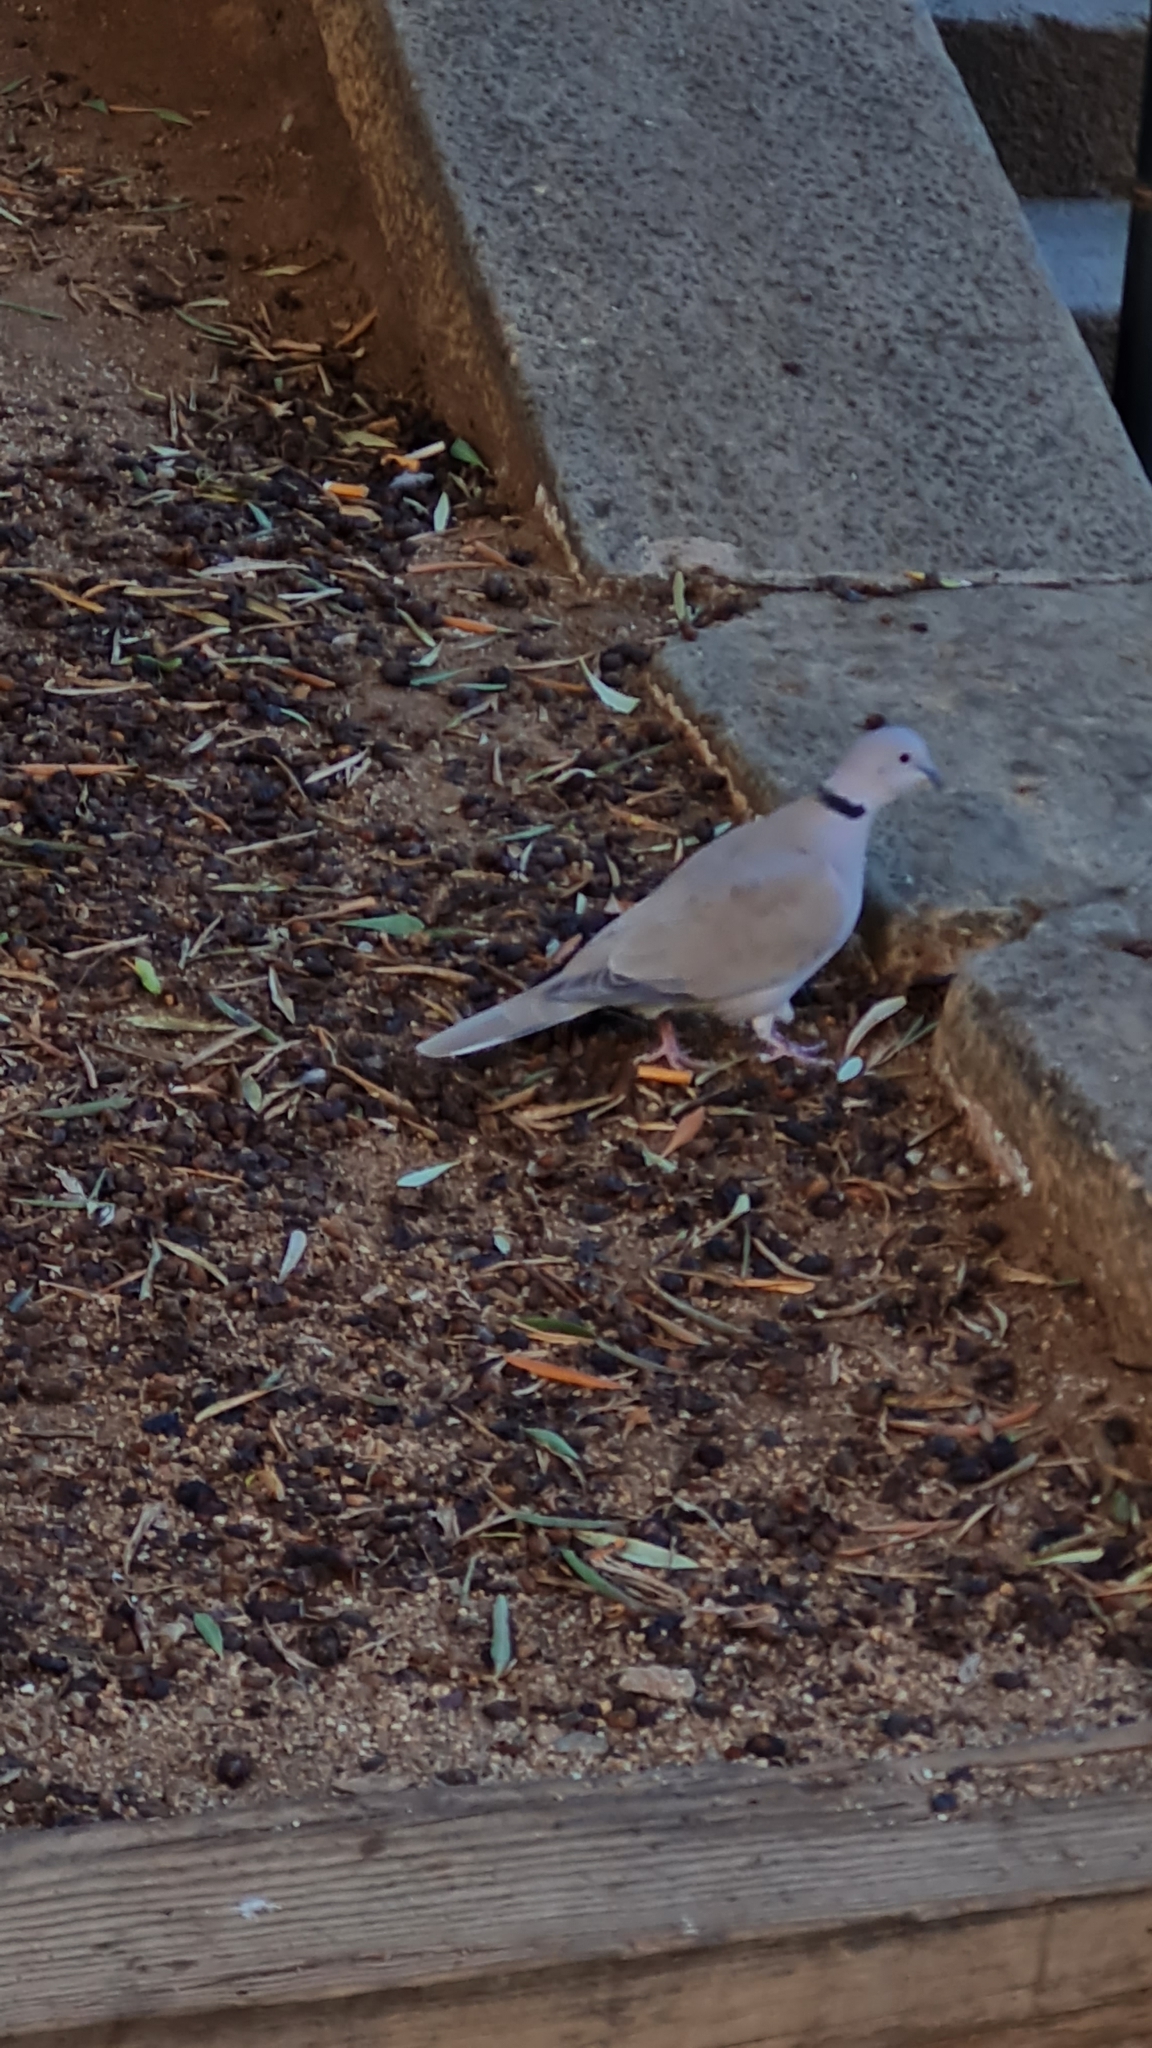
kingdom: Animalia
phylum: Chordata
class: Aves
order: Columbiformes
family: Columbidae
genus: Streptopelia
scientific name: Streptopelia decaocto
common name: Eurasian collared dove
